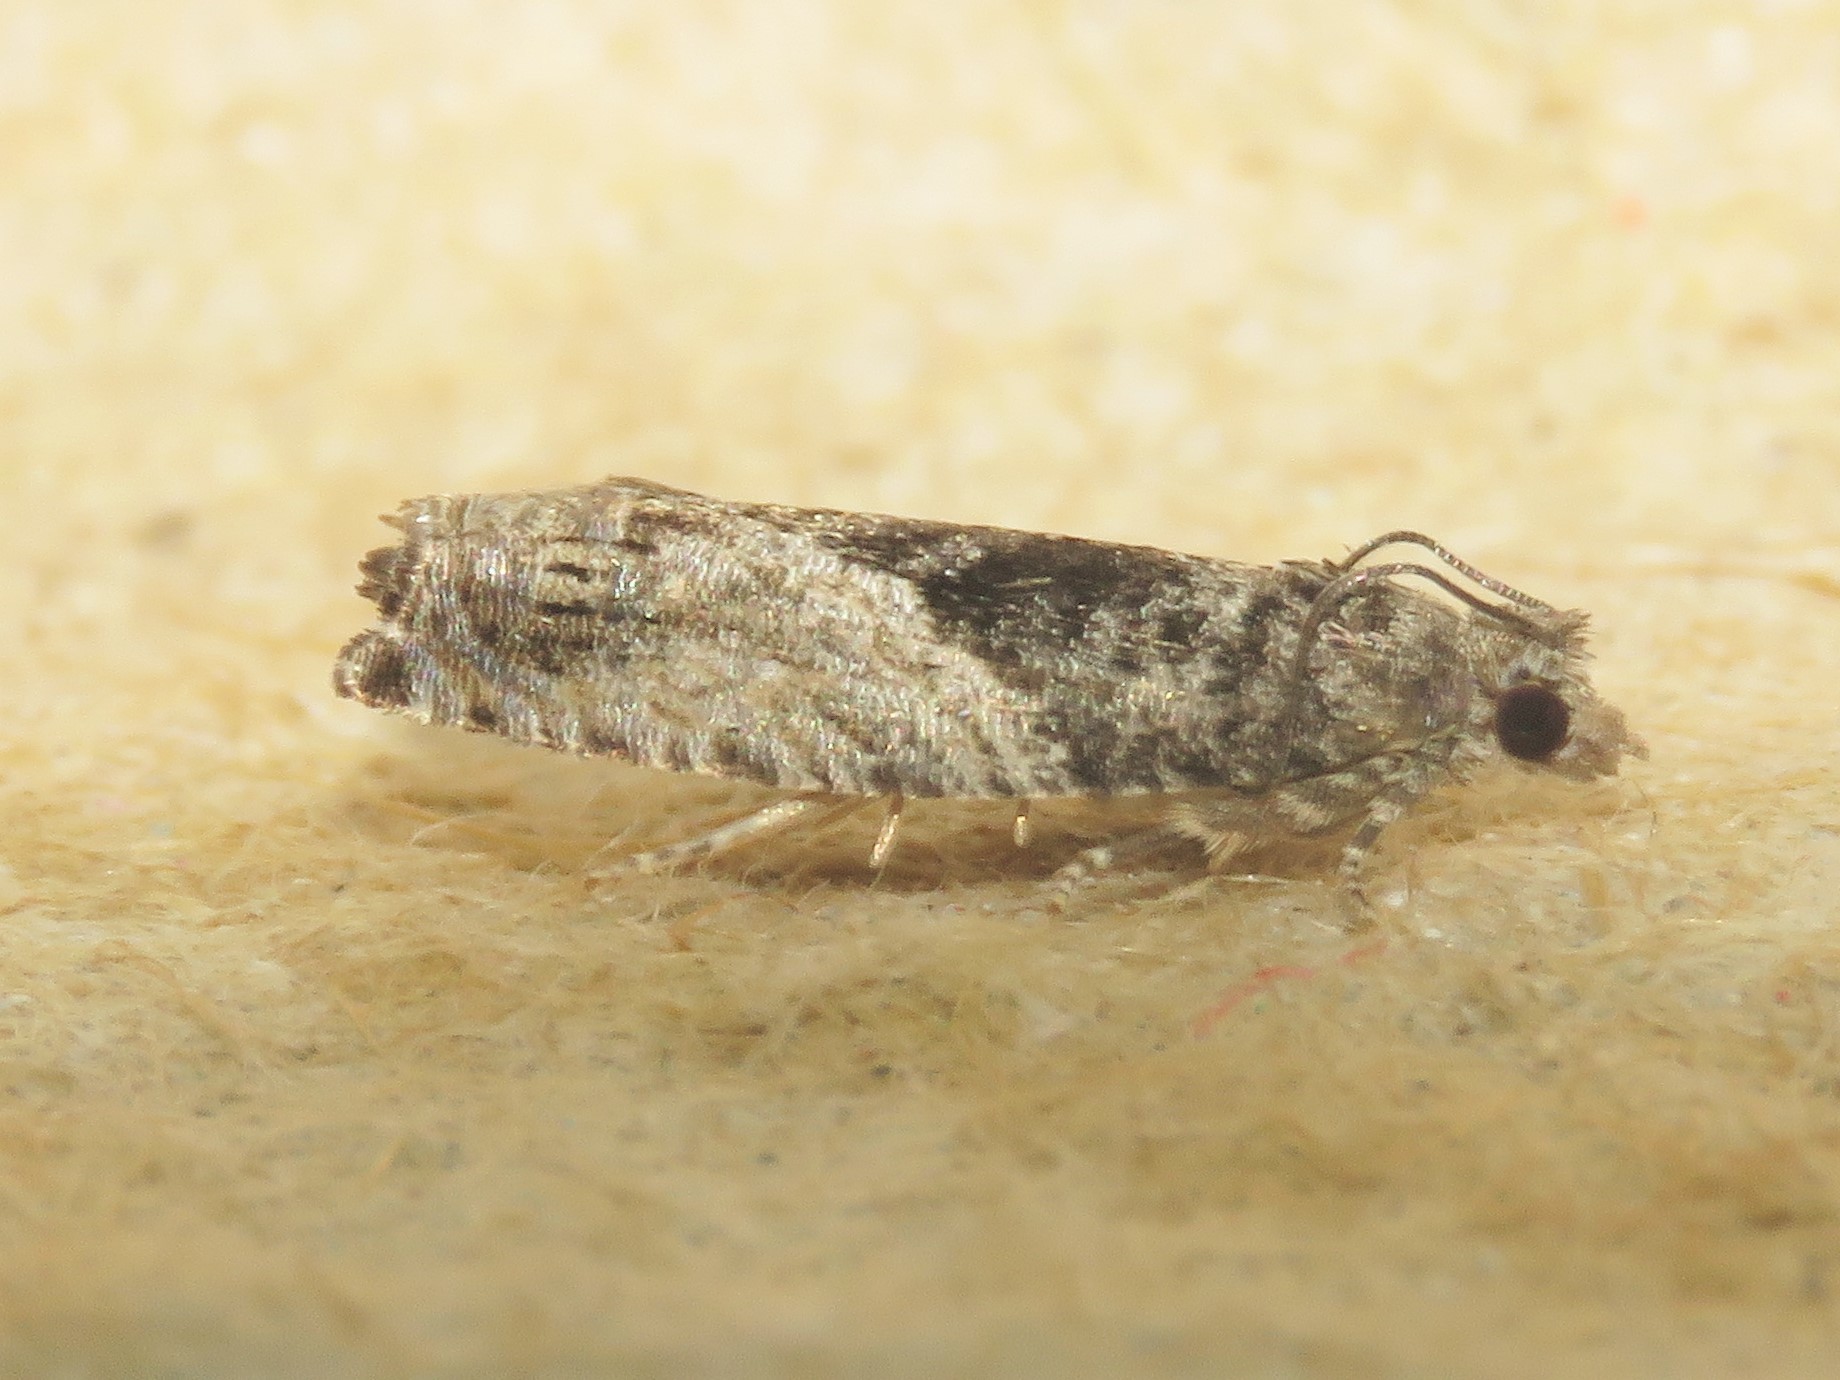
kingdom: Animalia
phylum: Arthropoda
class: Insecta
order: Lepidoptera
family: Tortricidae
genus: Epinotia
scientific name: Epinotia nisella
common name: Grey poplar bell
